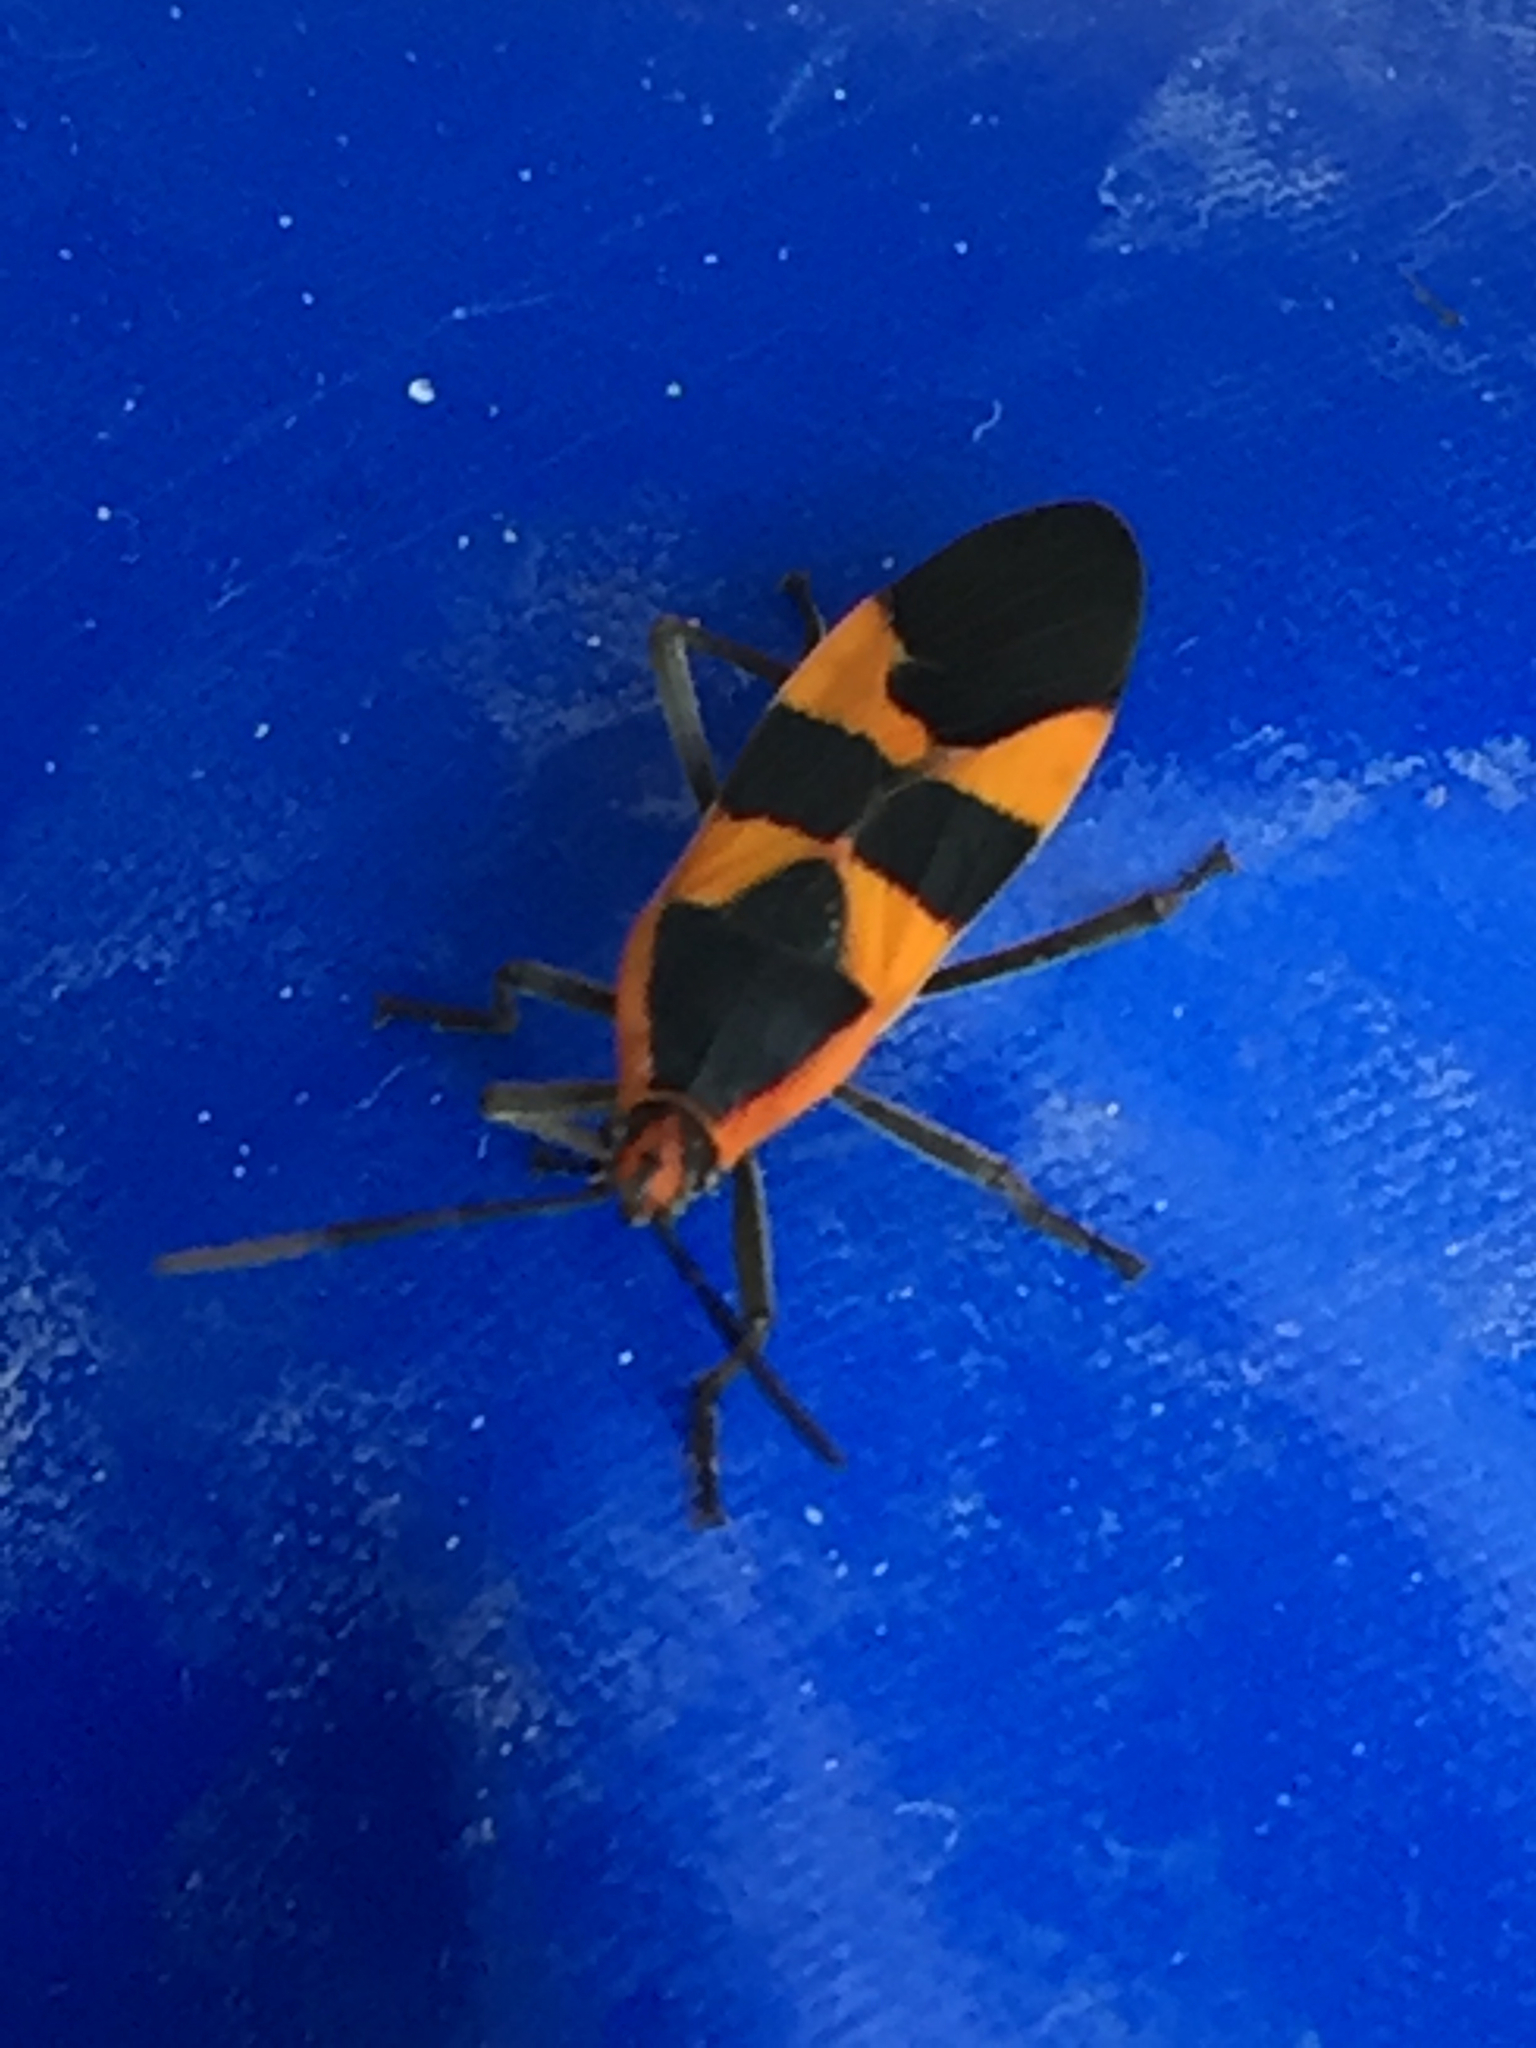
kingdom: Animalia
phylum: Arthropoda
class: Insecta
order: Hemiptera
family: Lygaeidae
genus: Oncopeltus
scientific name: Oncopeltus fasciatus
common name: Large milkweed bug
